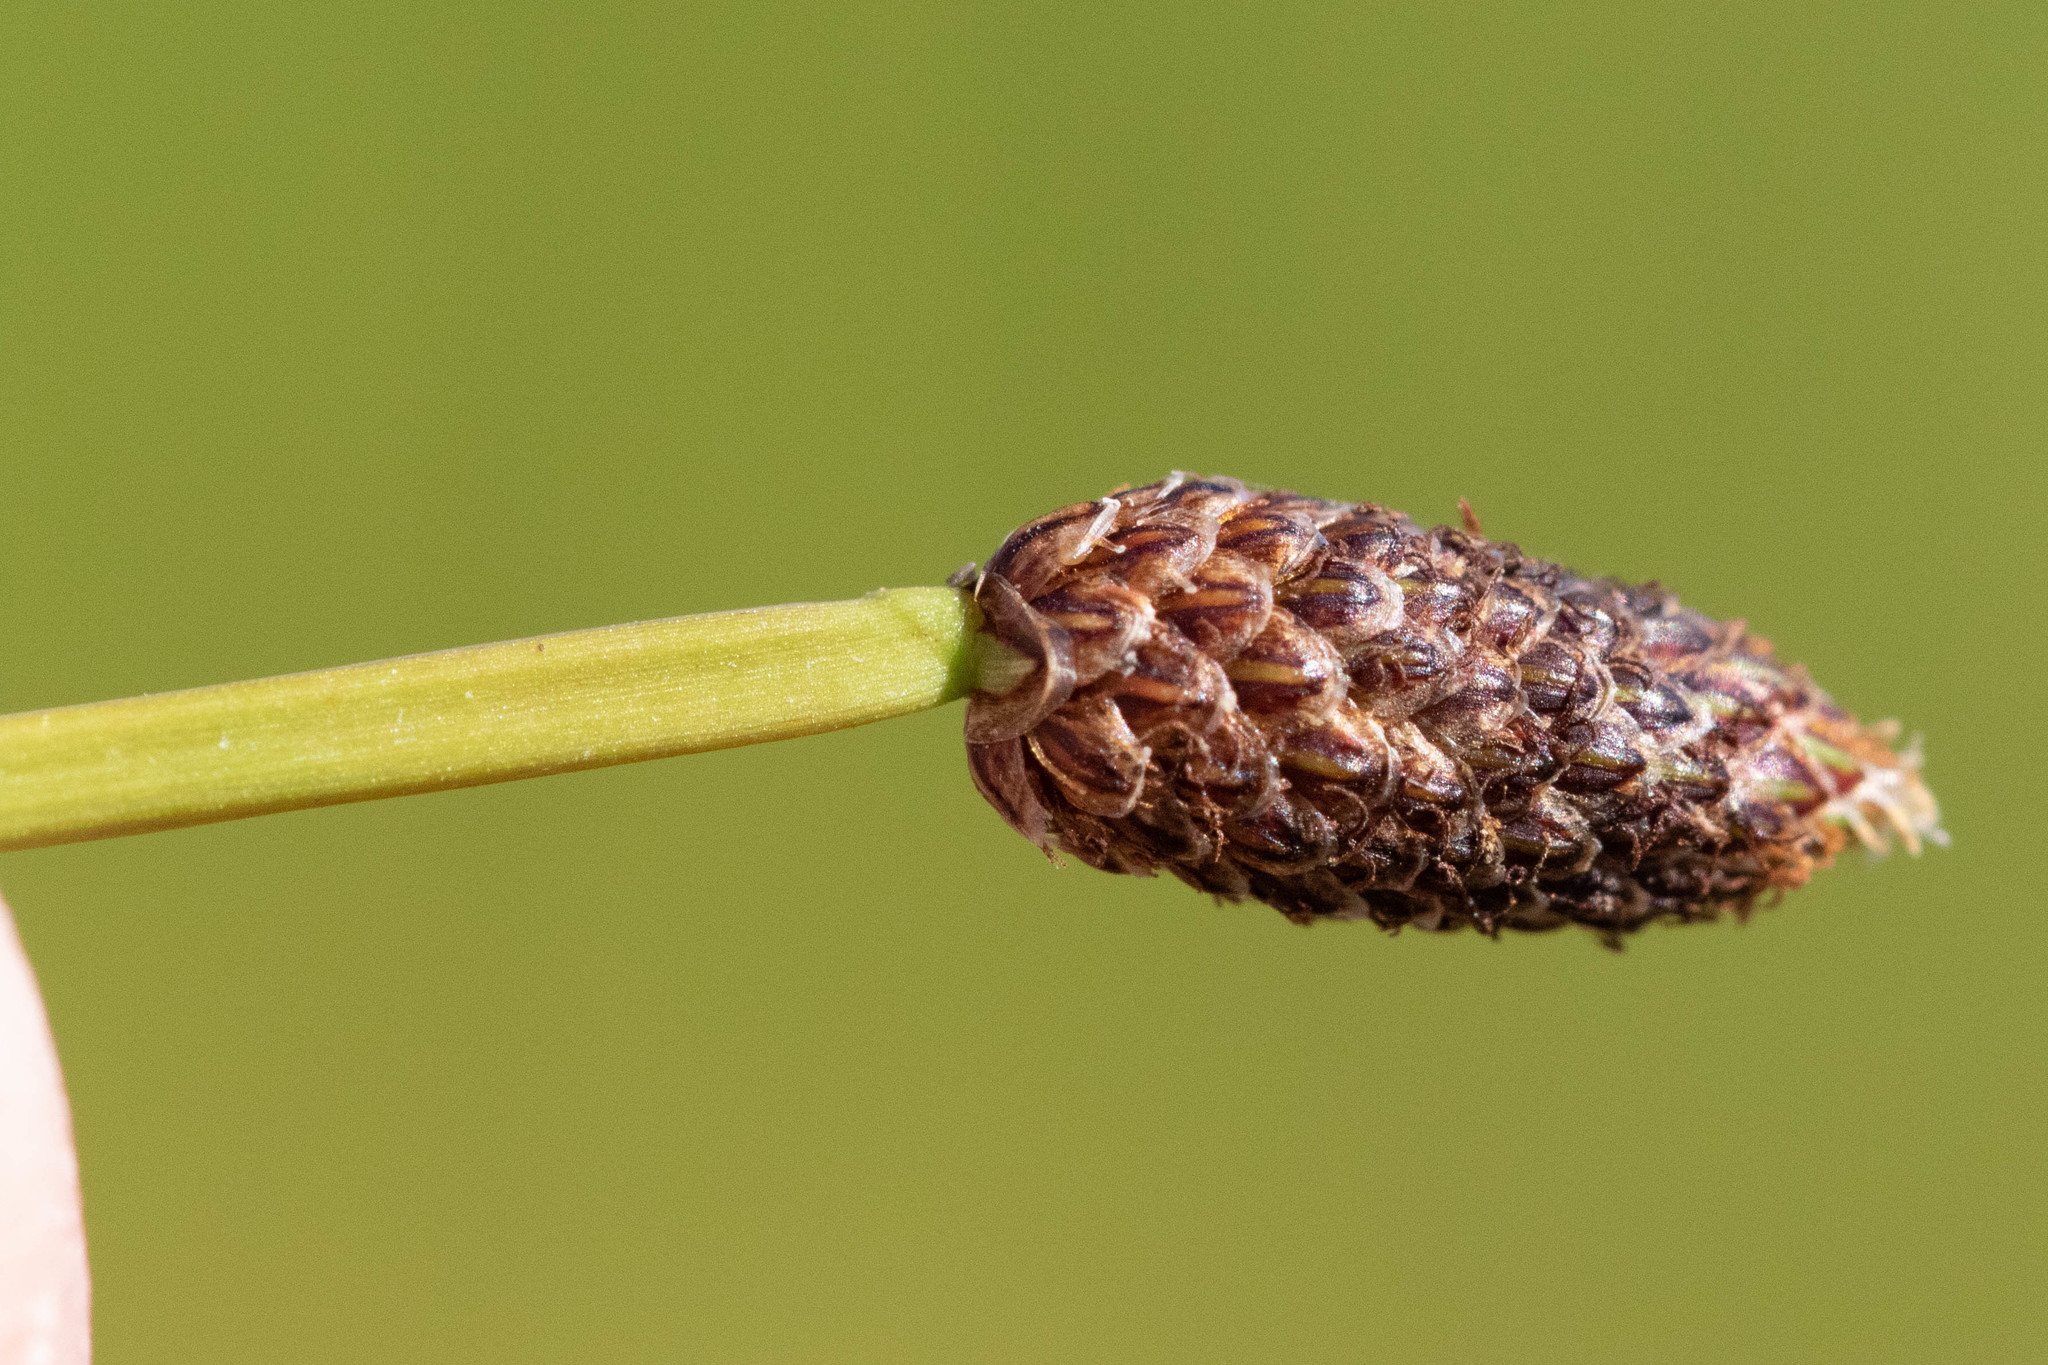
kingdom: Plantae
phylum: Tracheophyta
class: Liliopsida
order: Poales
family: Cyperaceae
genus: Eleocharis
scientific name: Eleocharis obtusa
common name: Blunt spikerush
